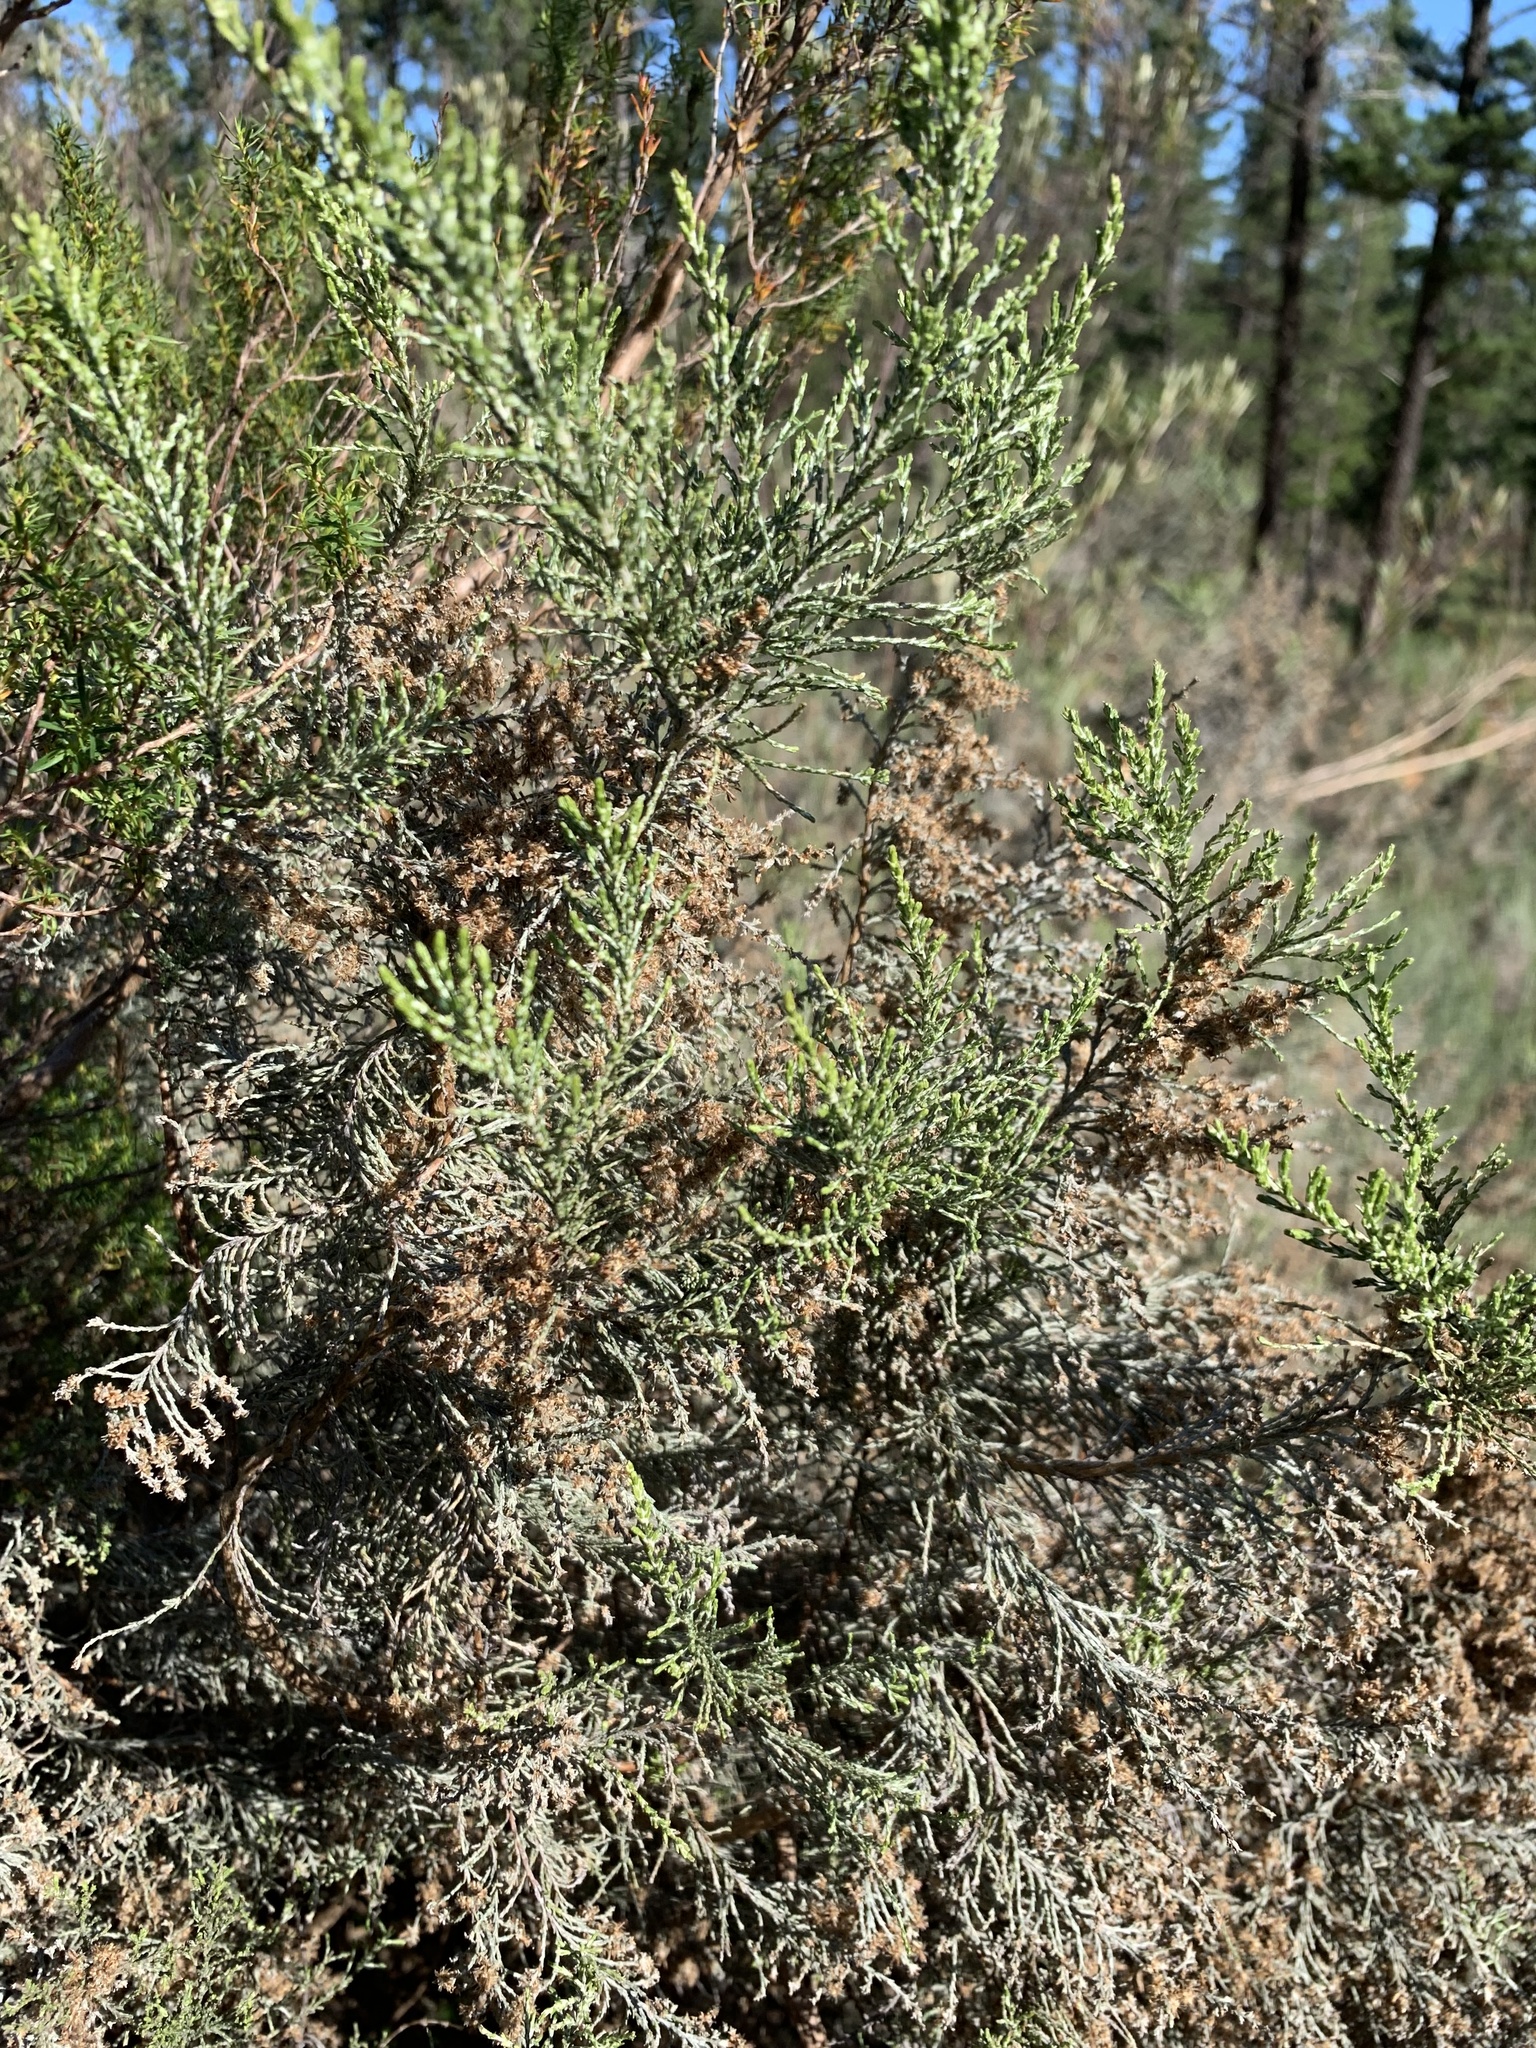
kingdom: Plantae
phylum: Tracheophyta
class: Magnoliopsida
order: Asterales
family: Asteraceae
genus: Dicerothamnus
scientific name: Dicerothamnus rhinocerotis
